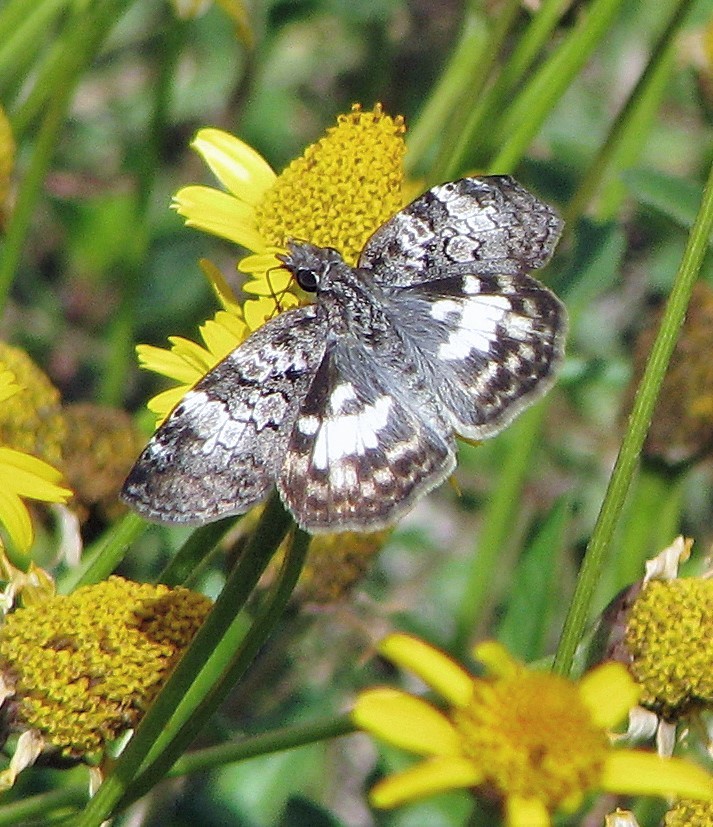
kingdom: Animalia
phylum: Arthropoda
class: Insecta
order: Lepidoptera
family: Hesperiidae
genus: Chiomara
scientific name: Chiomara asychis
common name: White-patterned skipper
